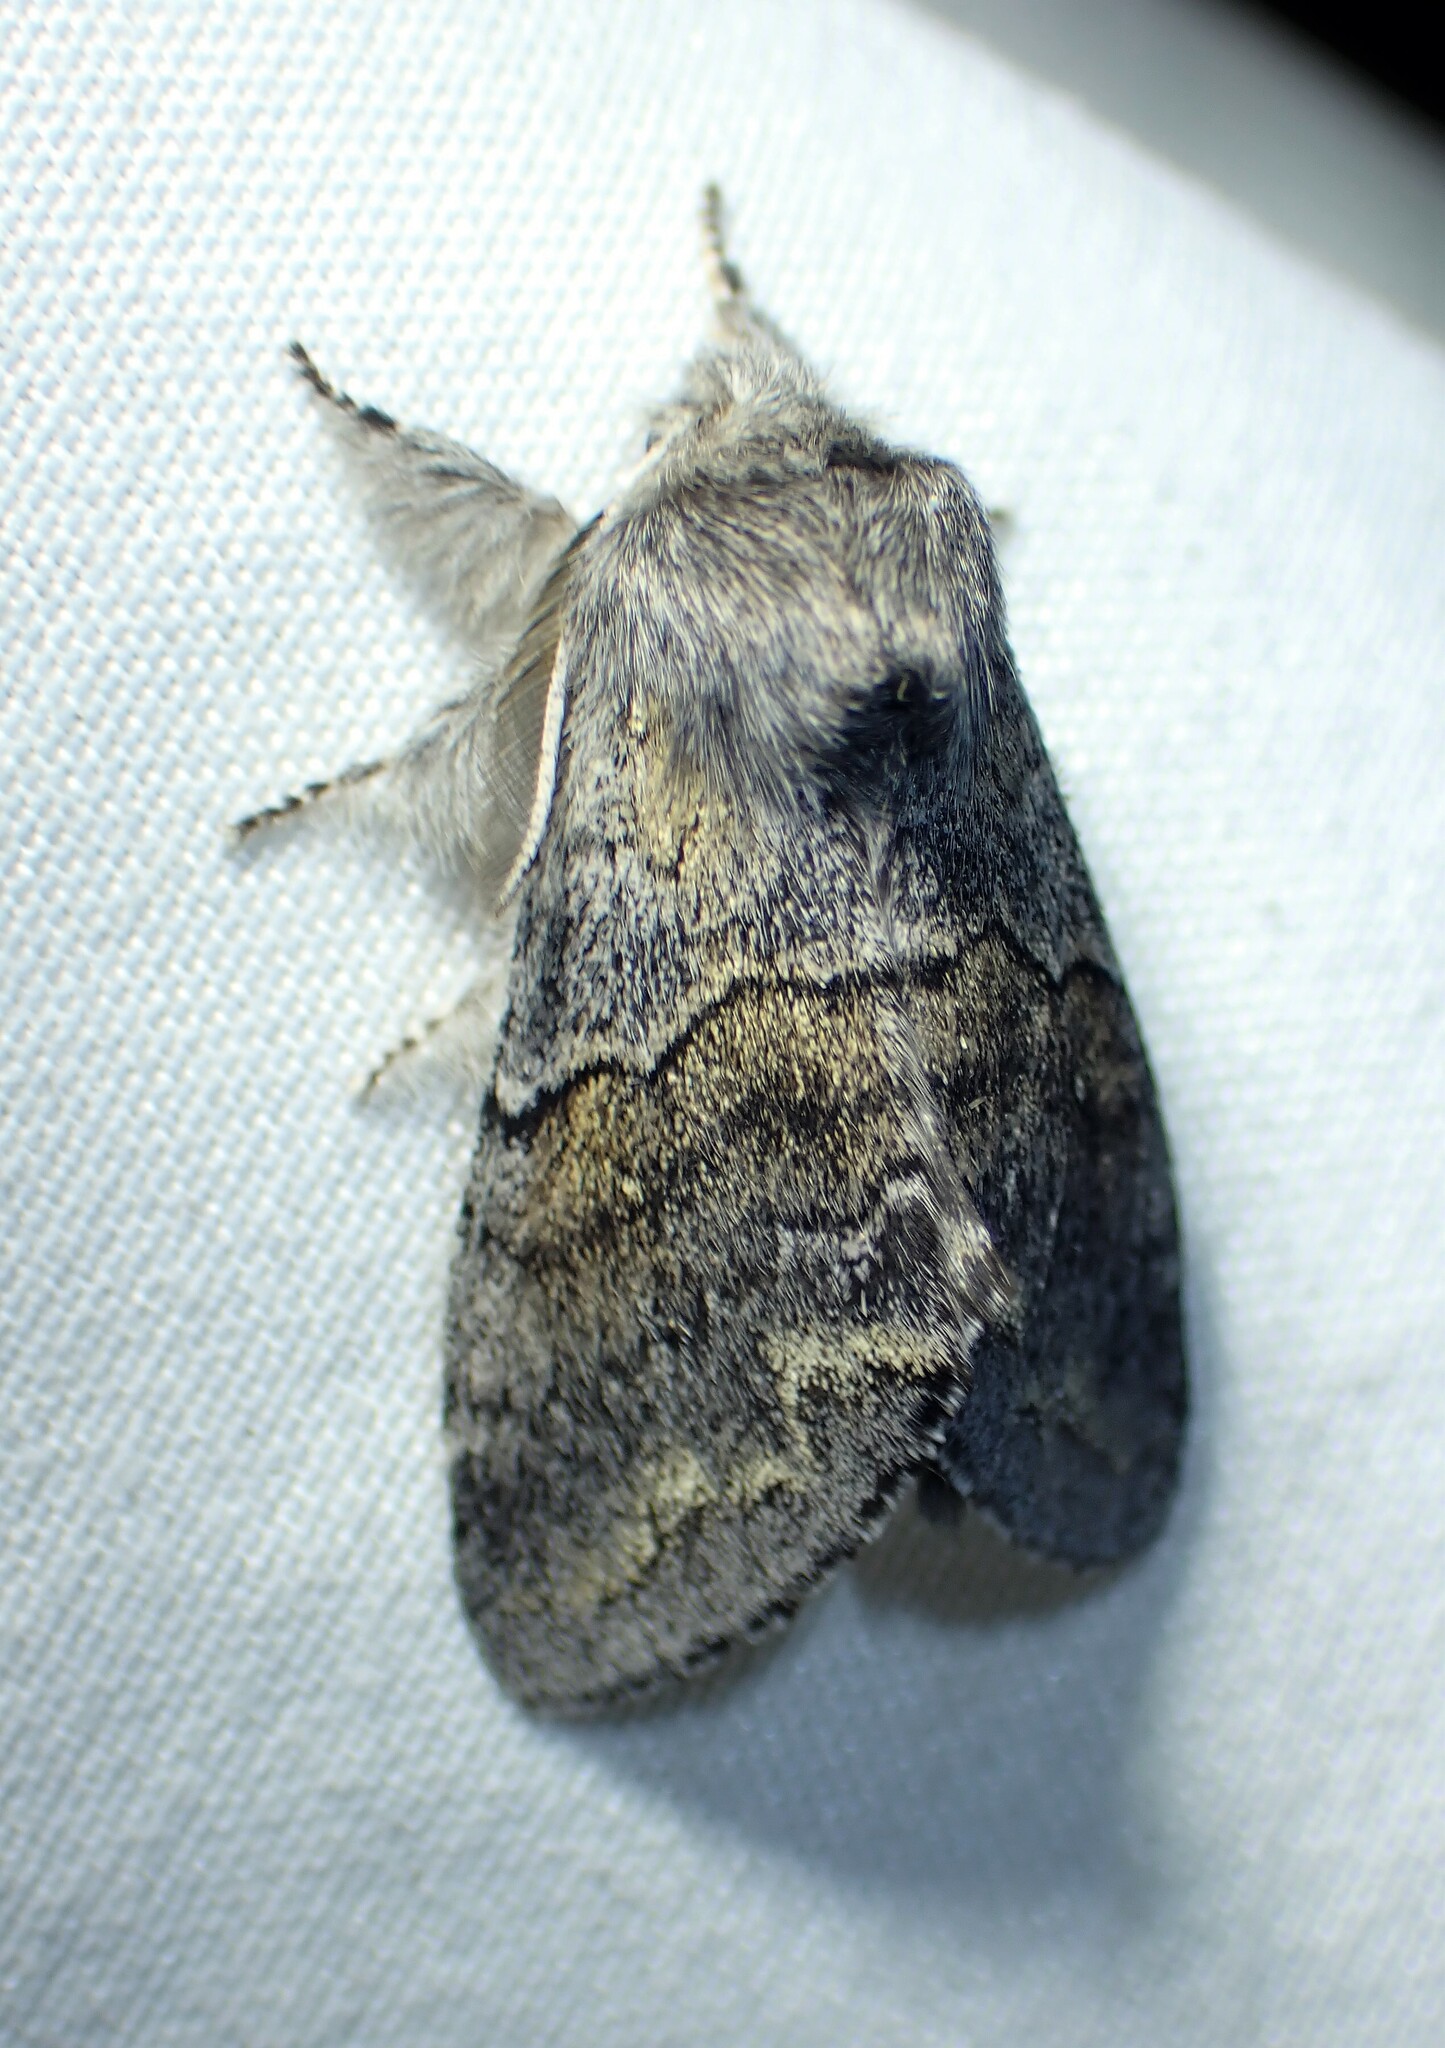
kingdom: Animalia
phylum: Arthropoda
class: Insecta
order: Lepidoptera
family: Notodontidae
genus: Gluphisia
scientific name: Gluphisia lintneri
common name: Lintner's gluphisia moth
